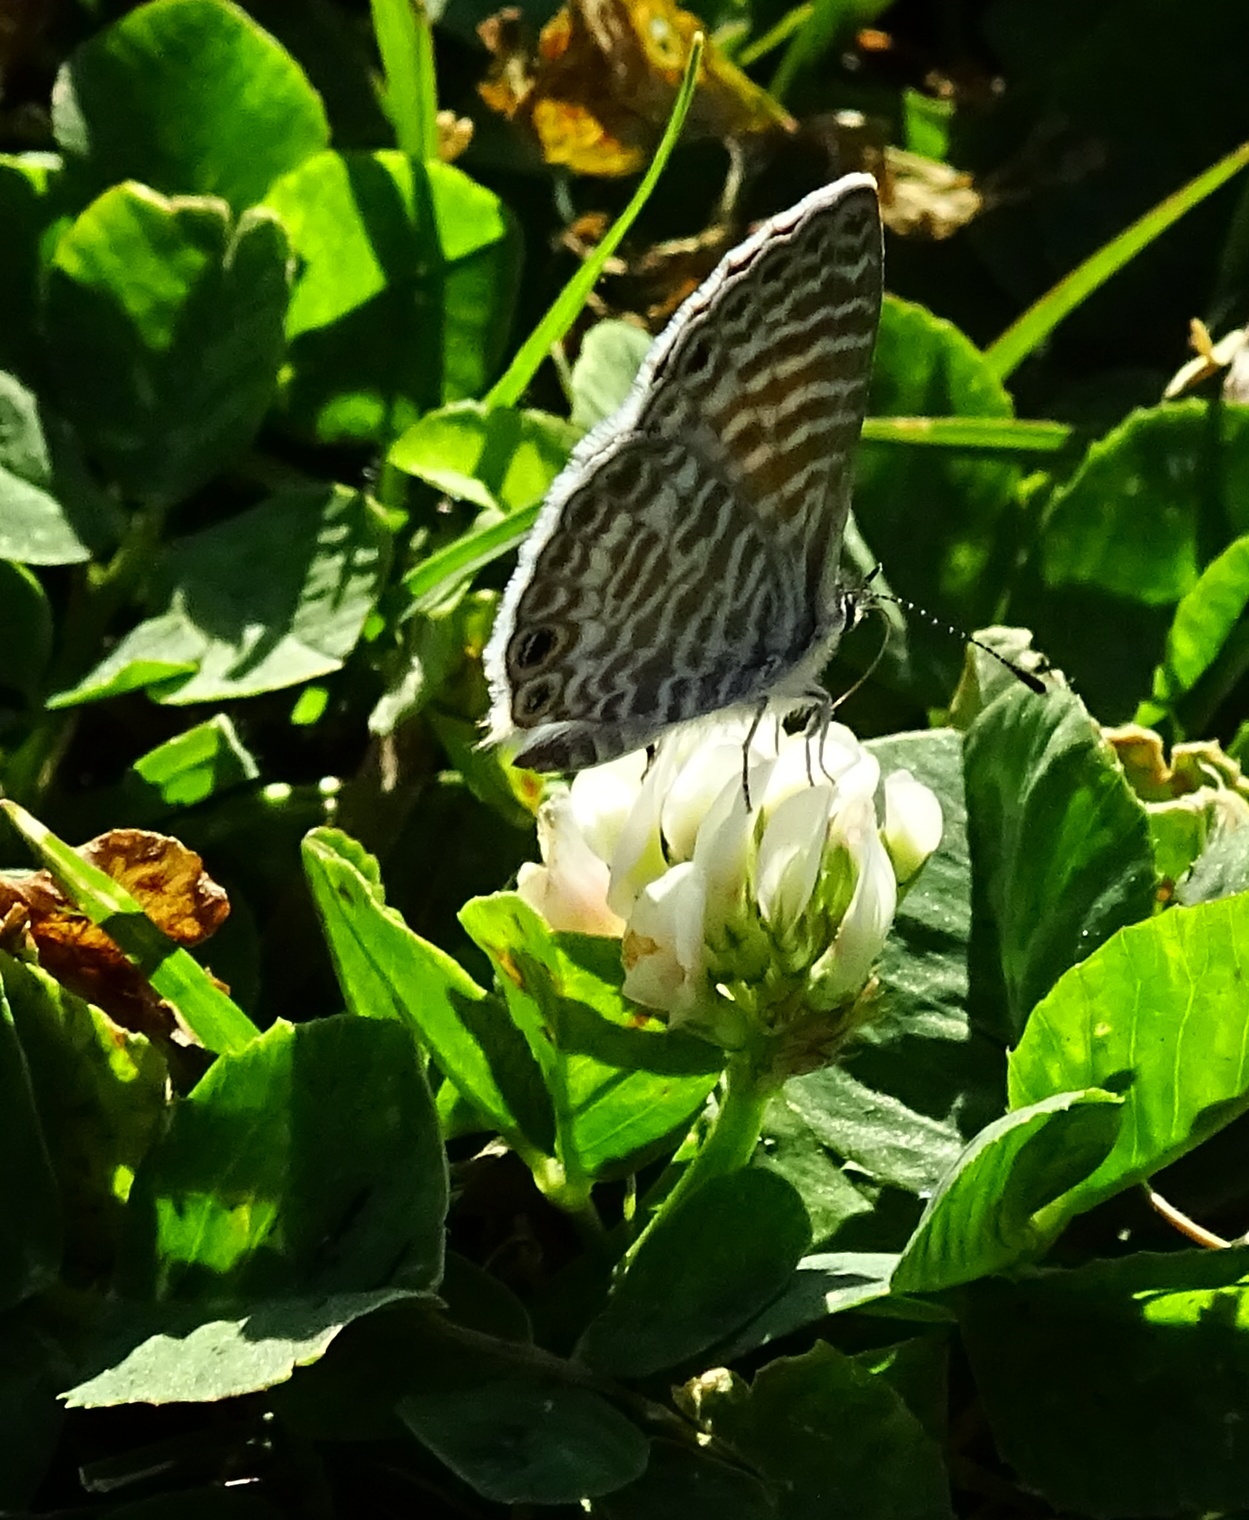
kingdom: Animalia
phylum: Arthropoda
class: Insecta
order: Lepidoptera
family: Lycaenidae
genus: Leptotes
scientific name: Leptotes marina
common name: Marine blue
